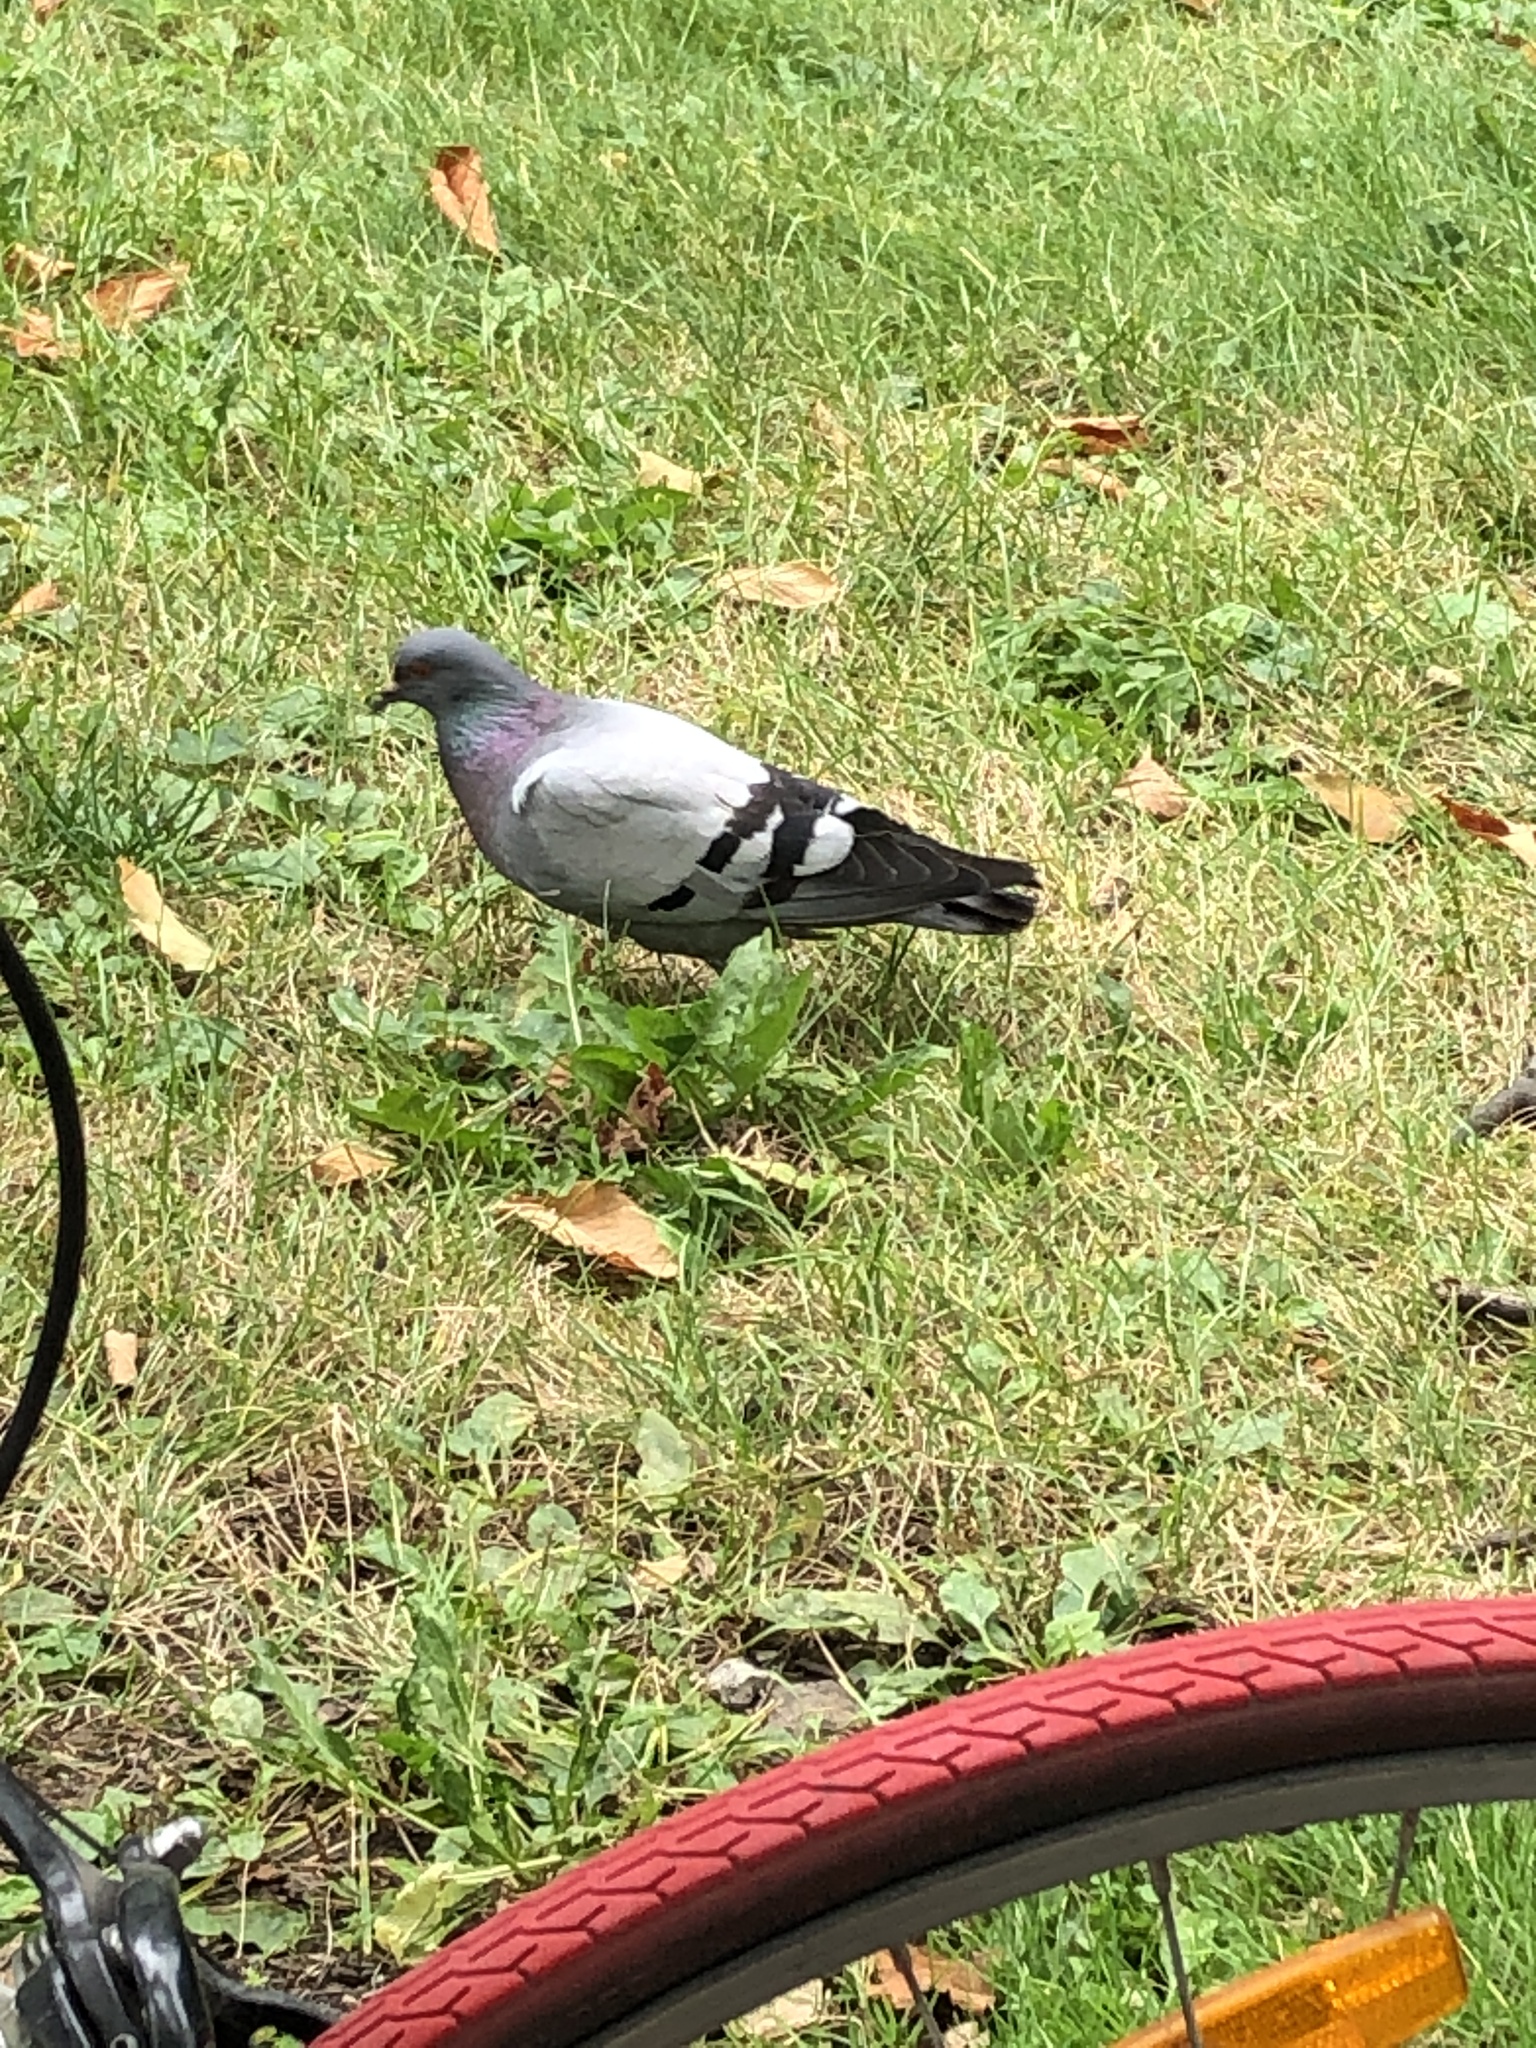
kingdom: Animalia
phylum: Chordata
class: Aves
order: Columbiformes
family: Columbidae
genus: Columba
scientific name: Columba livia
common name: Rock pigeon
